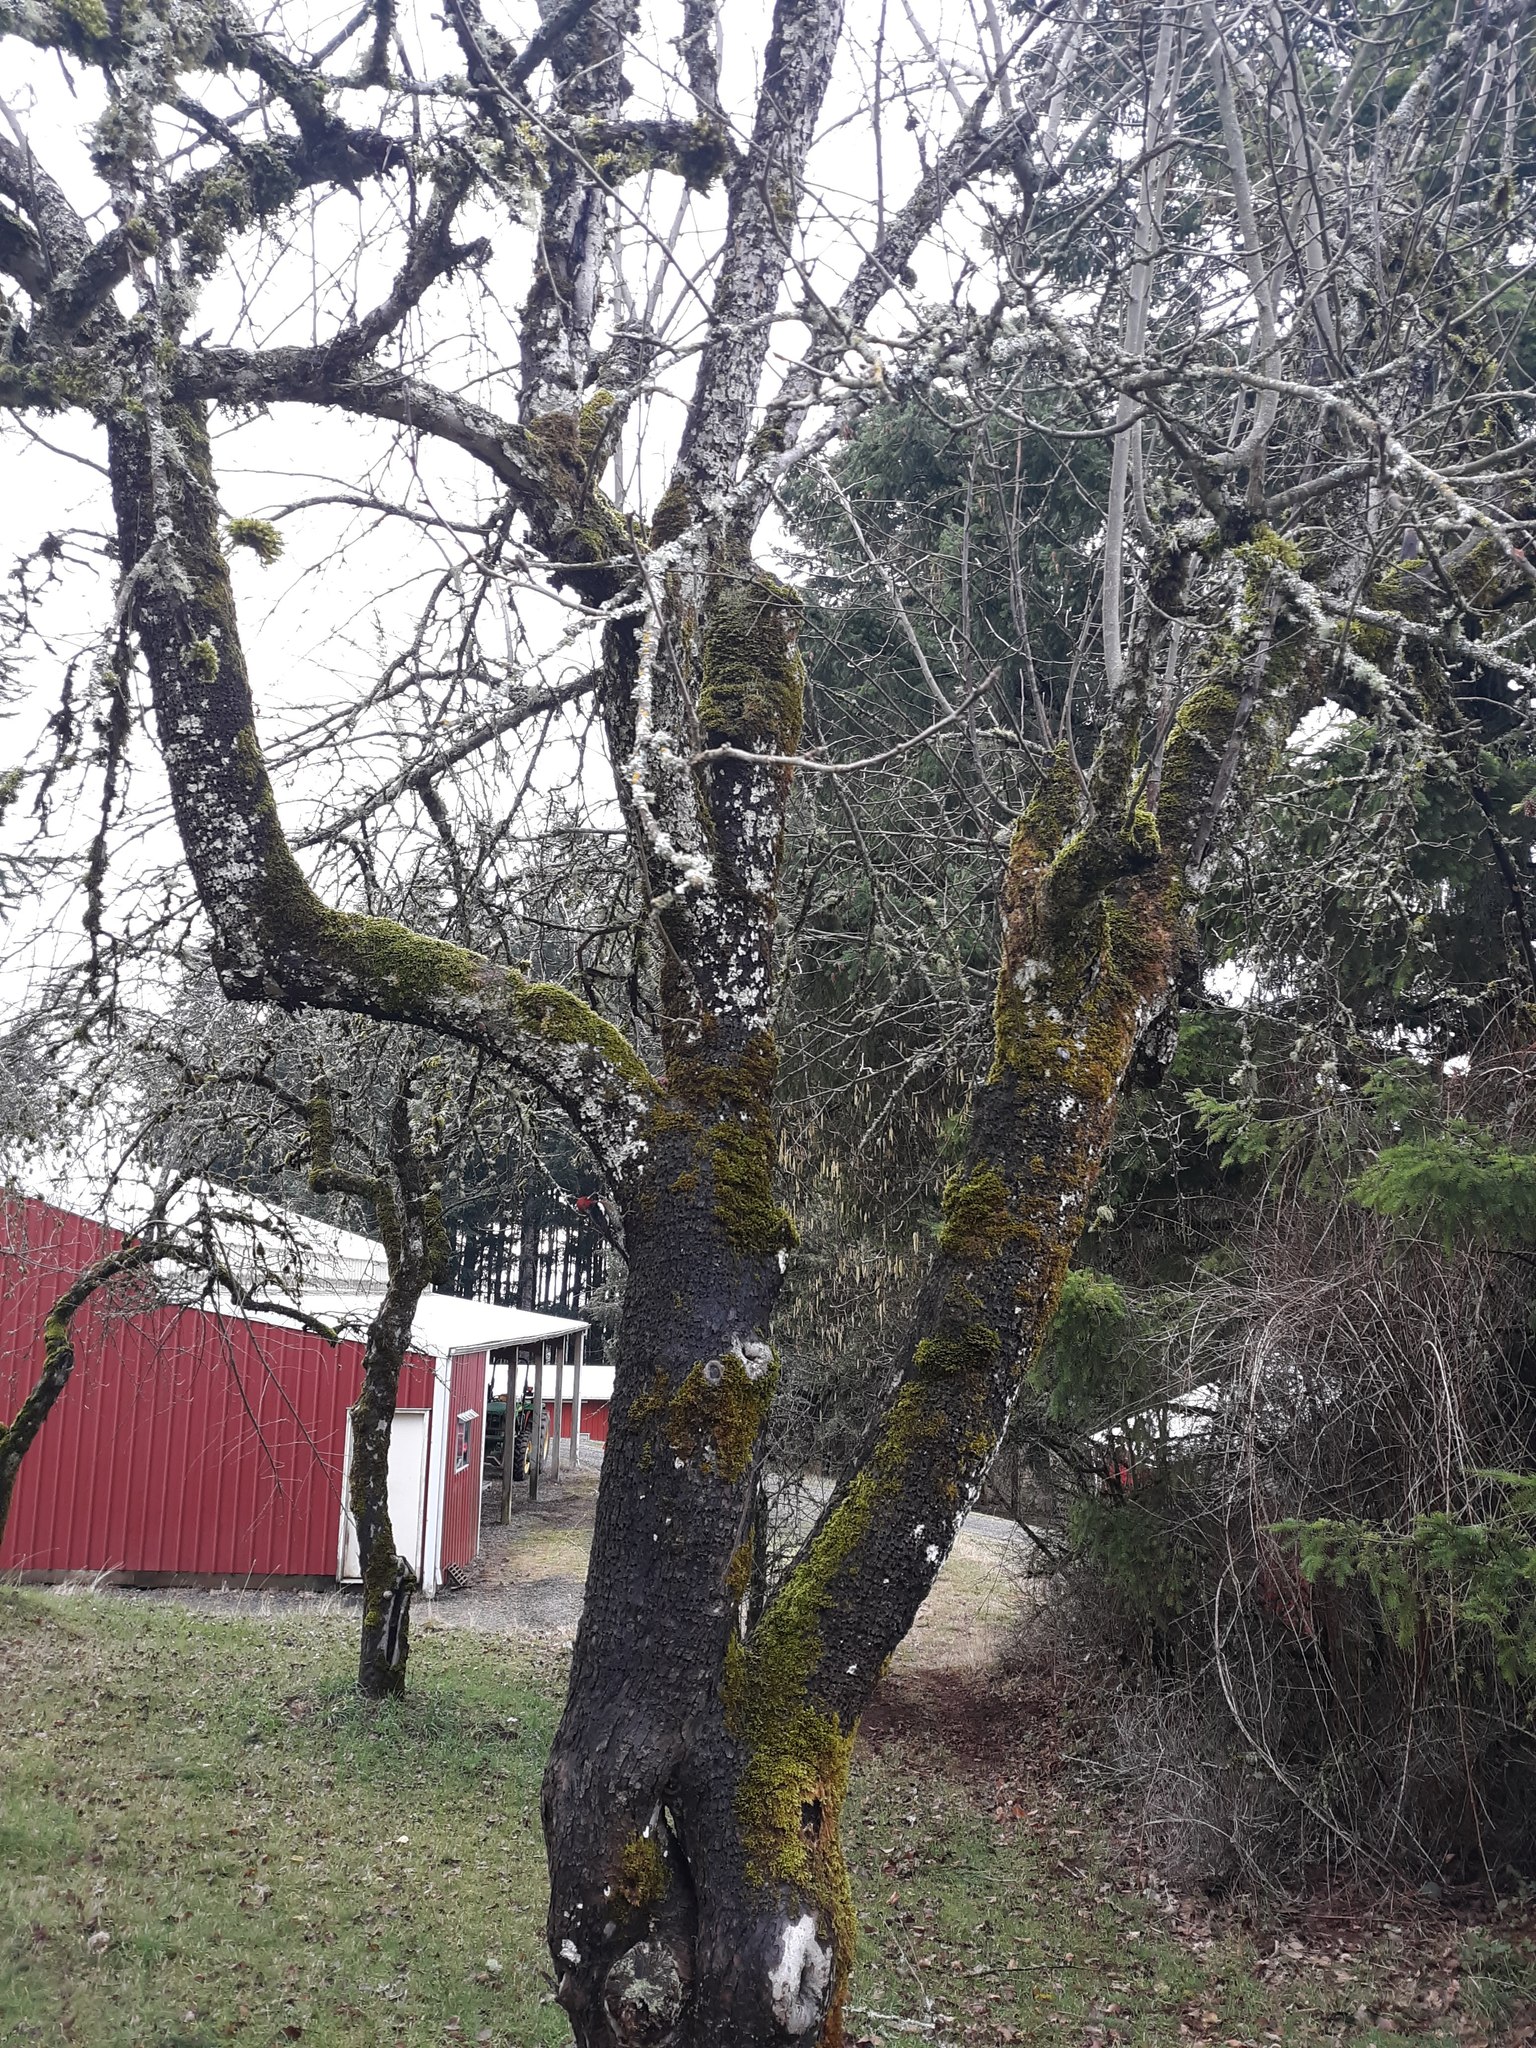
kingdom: Animalia
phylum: Chordata
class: Aves
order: Piciformes
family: Picidae
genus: Sphyrapicus
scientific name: Sphyrapicus ruber
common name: Red-breasted sapsucker
